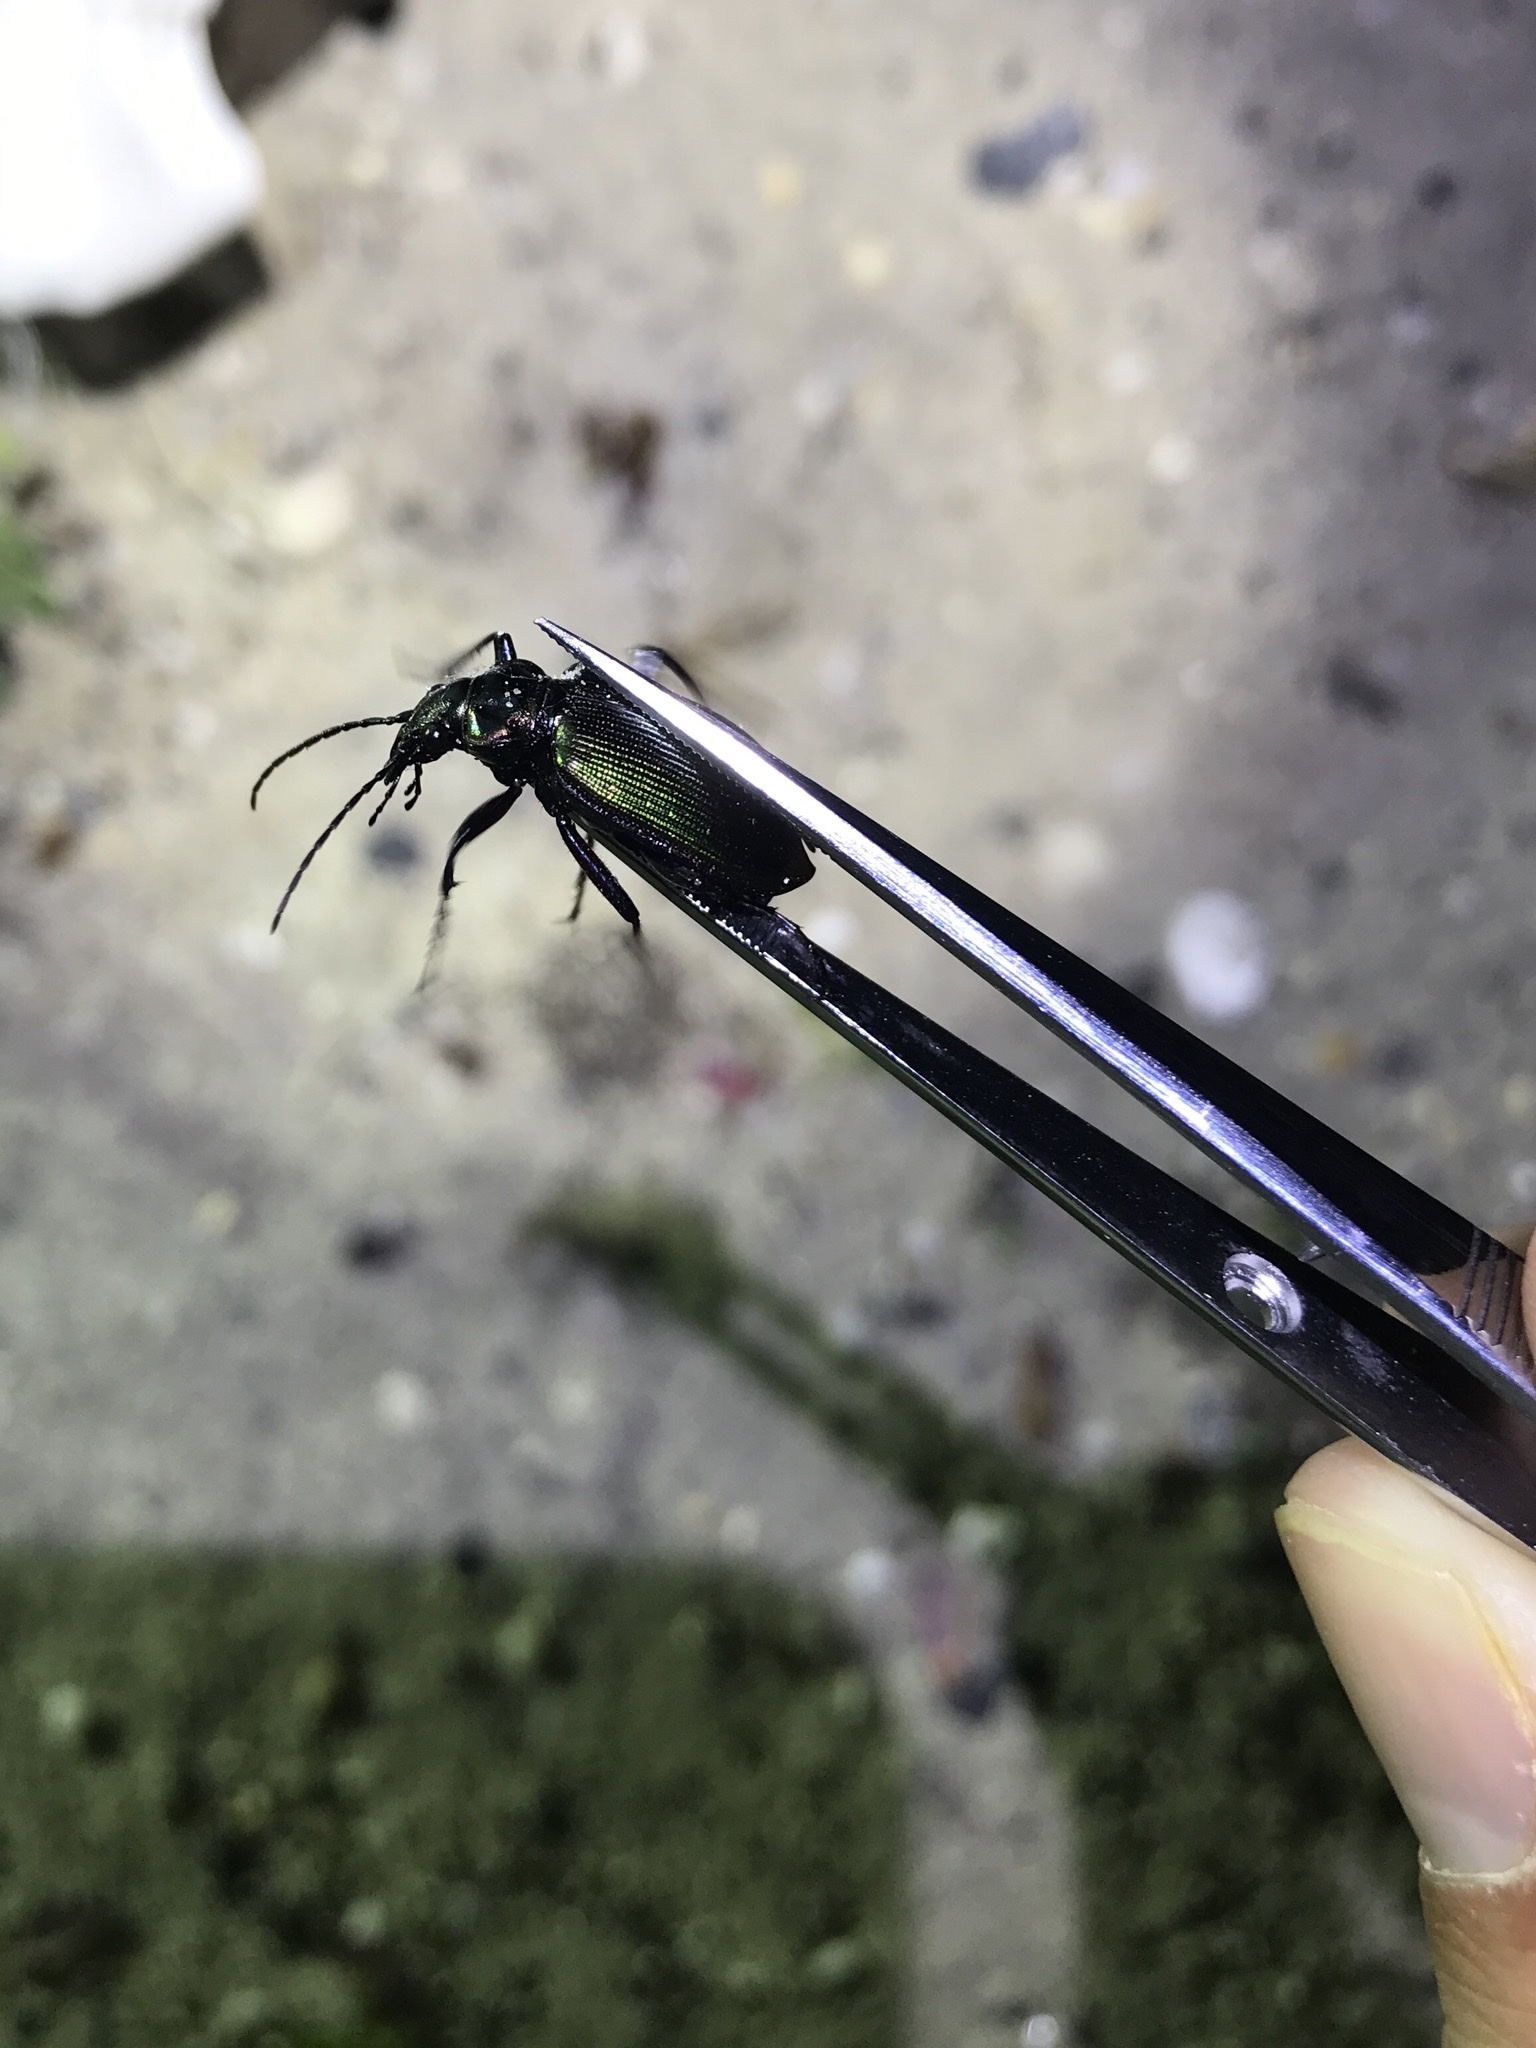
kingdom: Animalia
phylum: Arthropoda
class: Insecta
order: Coleoptera
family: Carabidae
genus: Calosoma
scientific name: Calosoma wilcoxi
